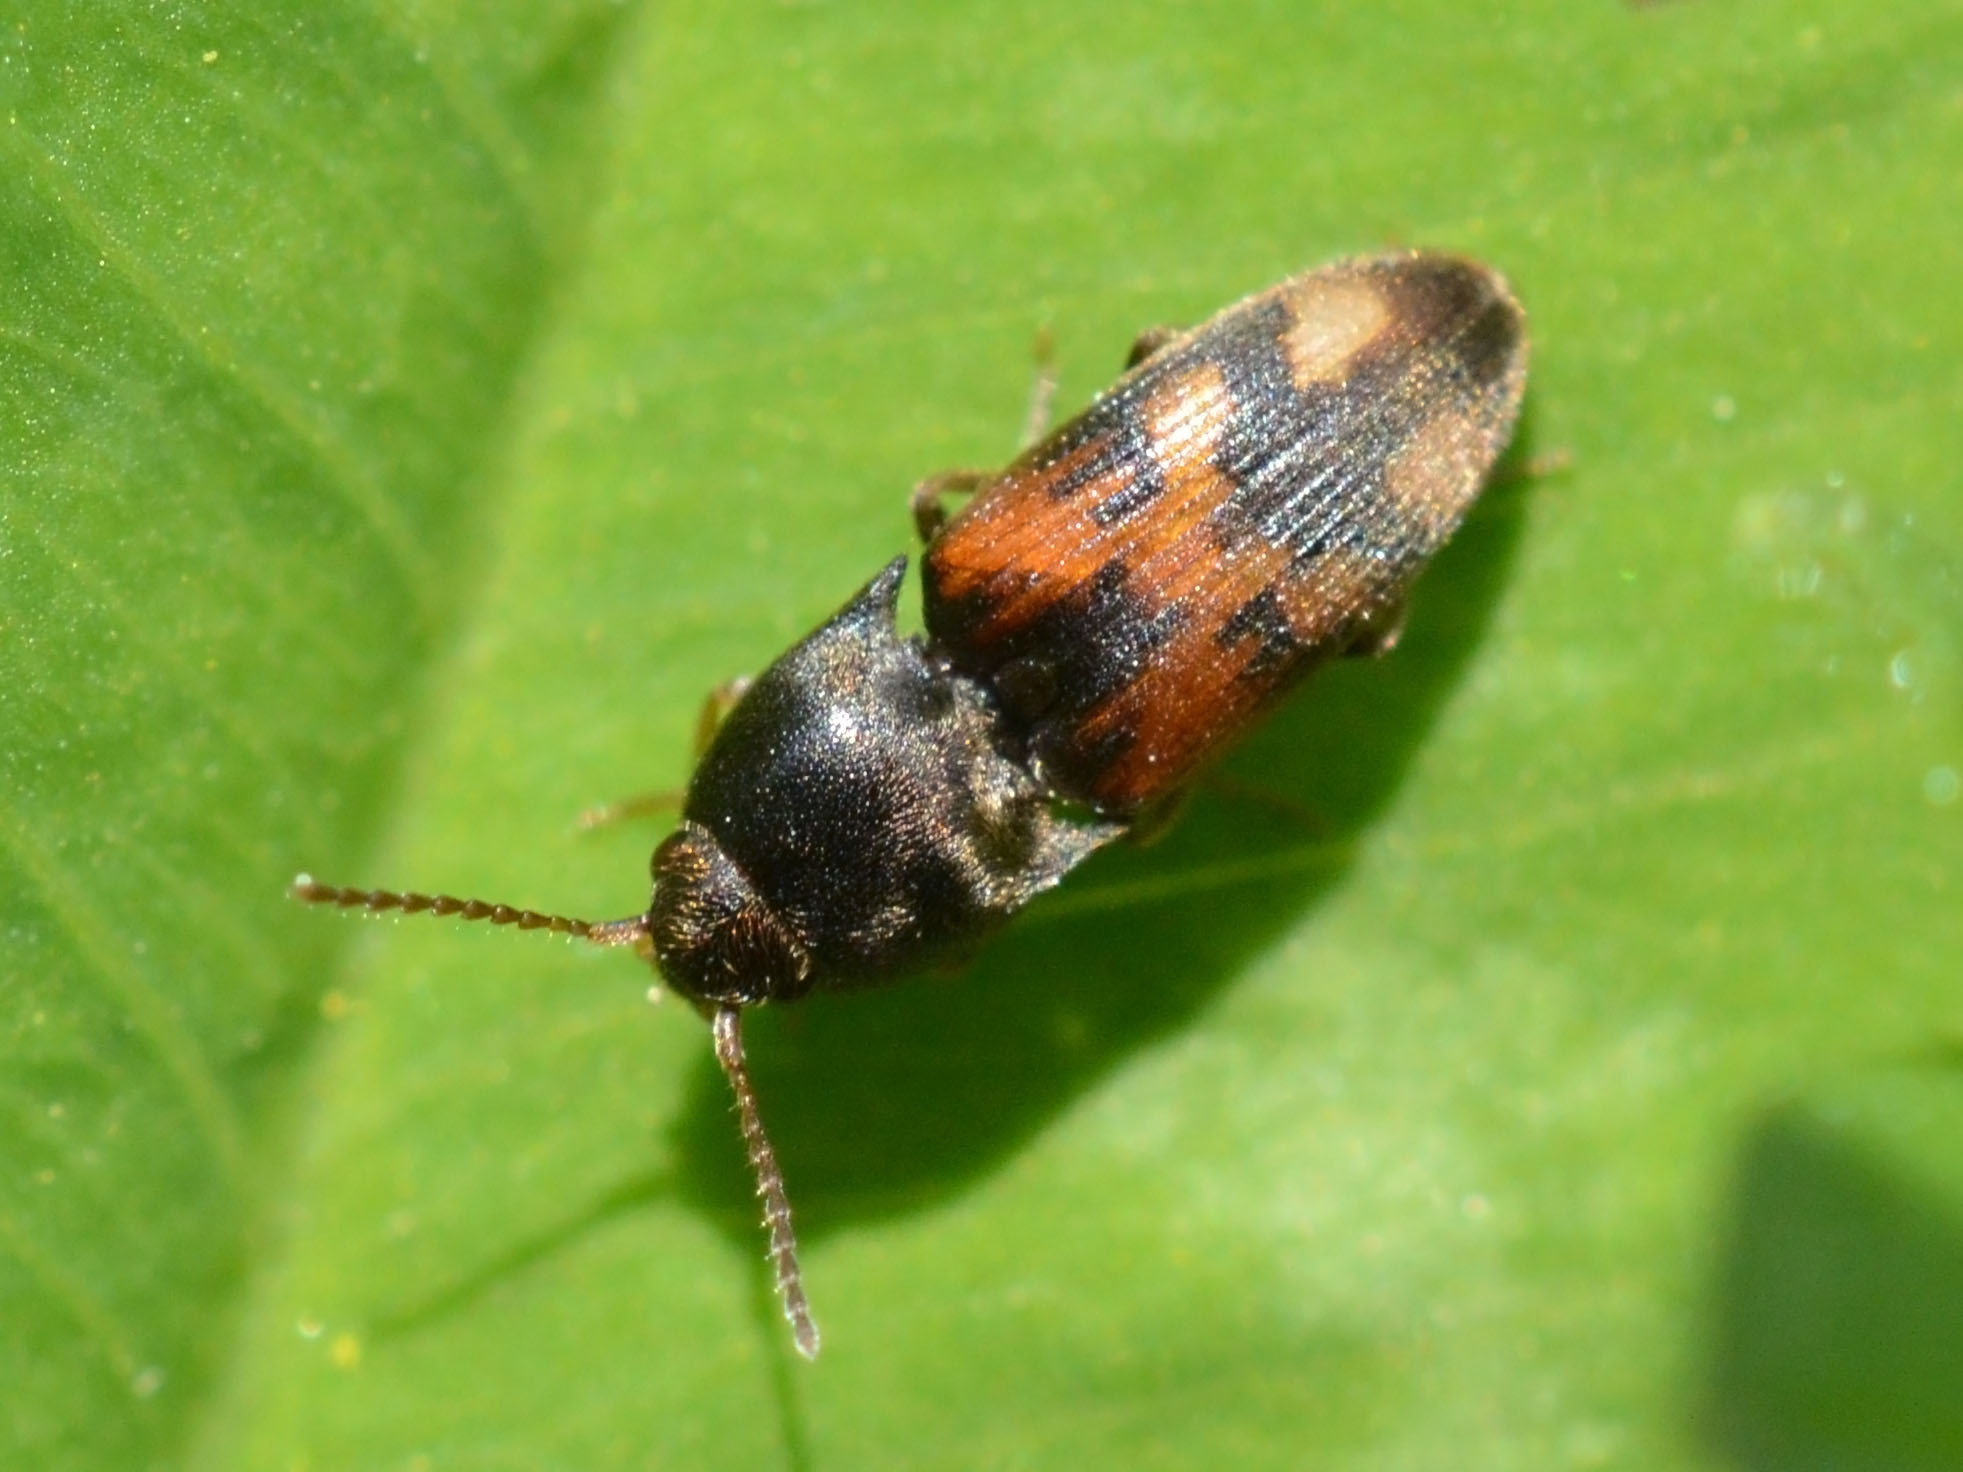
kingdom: Animalia
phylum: Arthropoda
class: Insecta
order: Coleoptera
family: Elateridae
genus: Drasterius
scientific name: Drasterius bimaculatus
